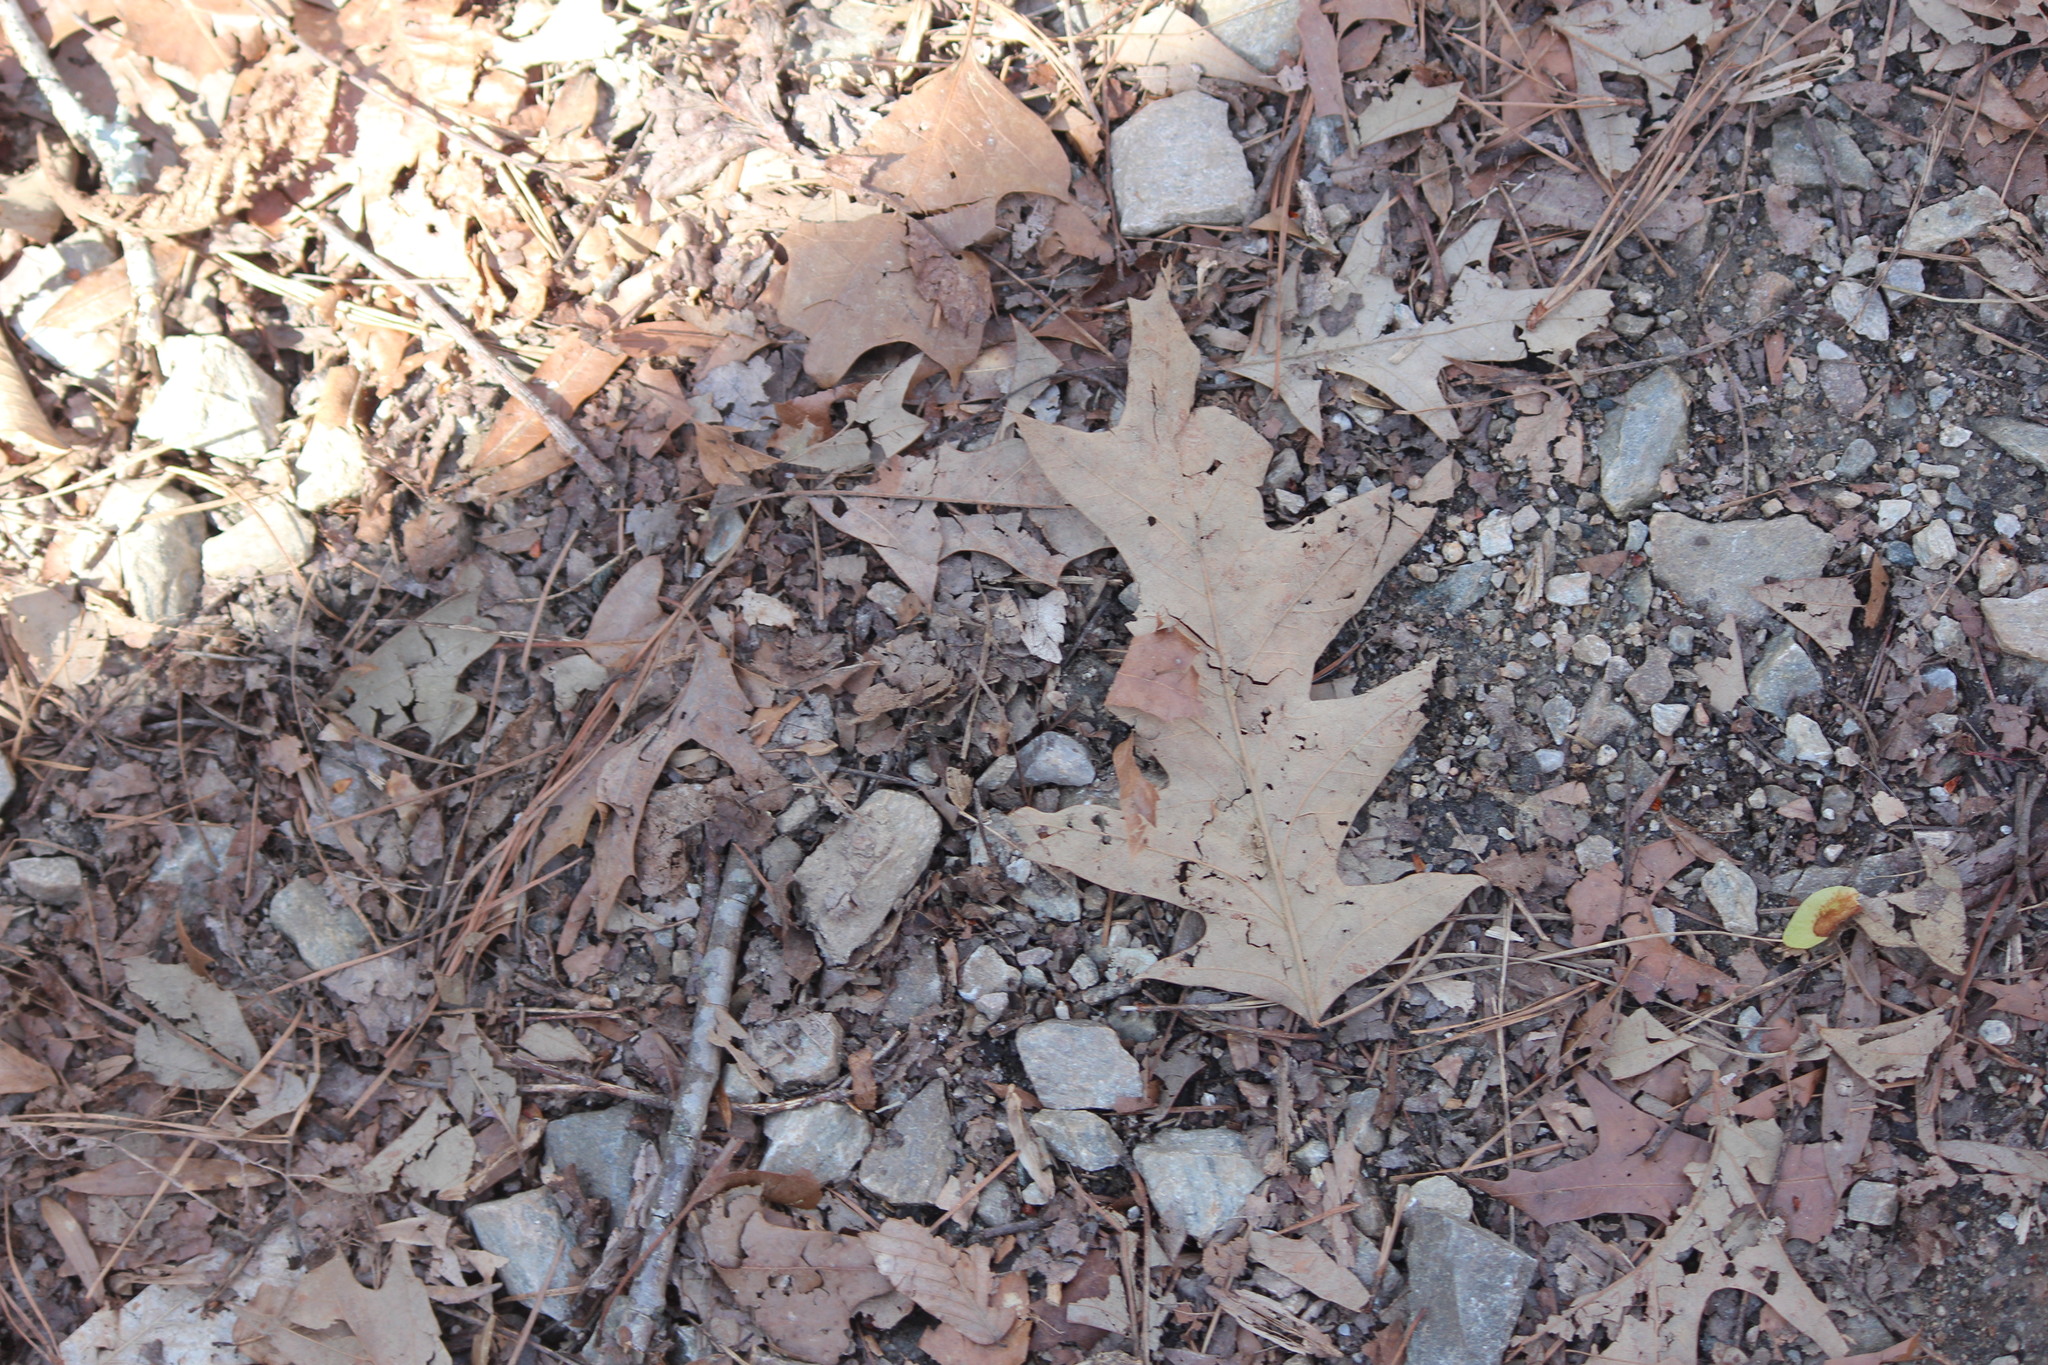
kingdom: Plantae
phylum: Tracheophyta
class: Magnoliopsida
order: Fagales
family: Fagaceae
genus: Quercus
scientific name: Quercus pagoda
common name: Cherrybark oak
